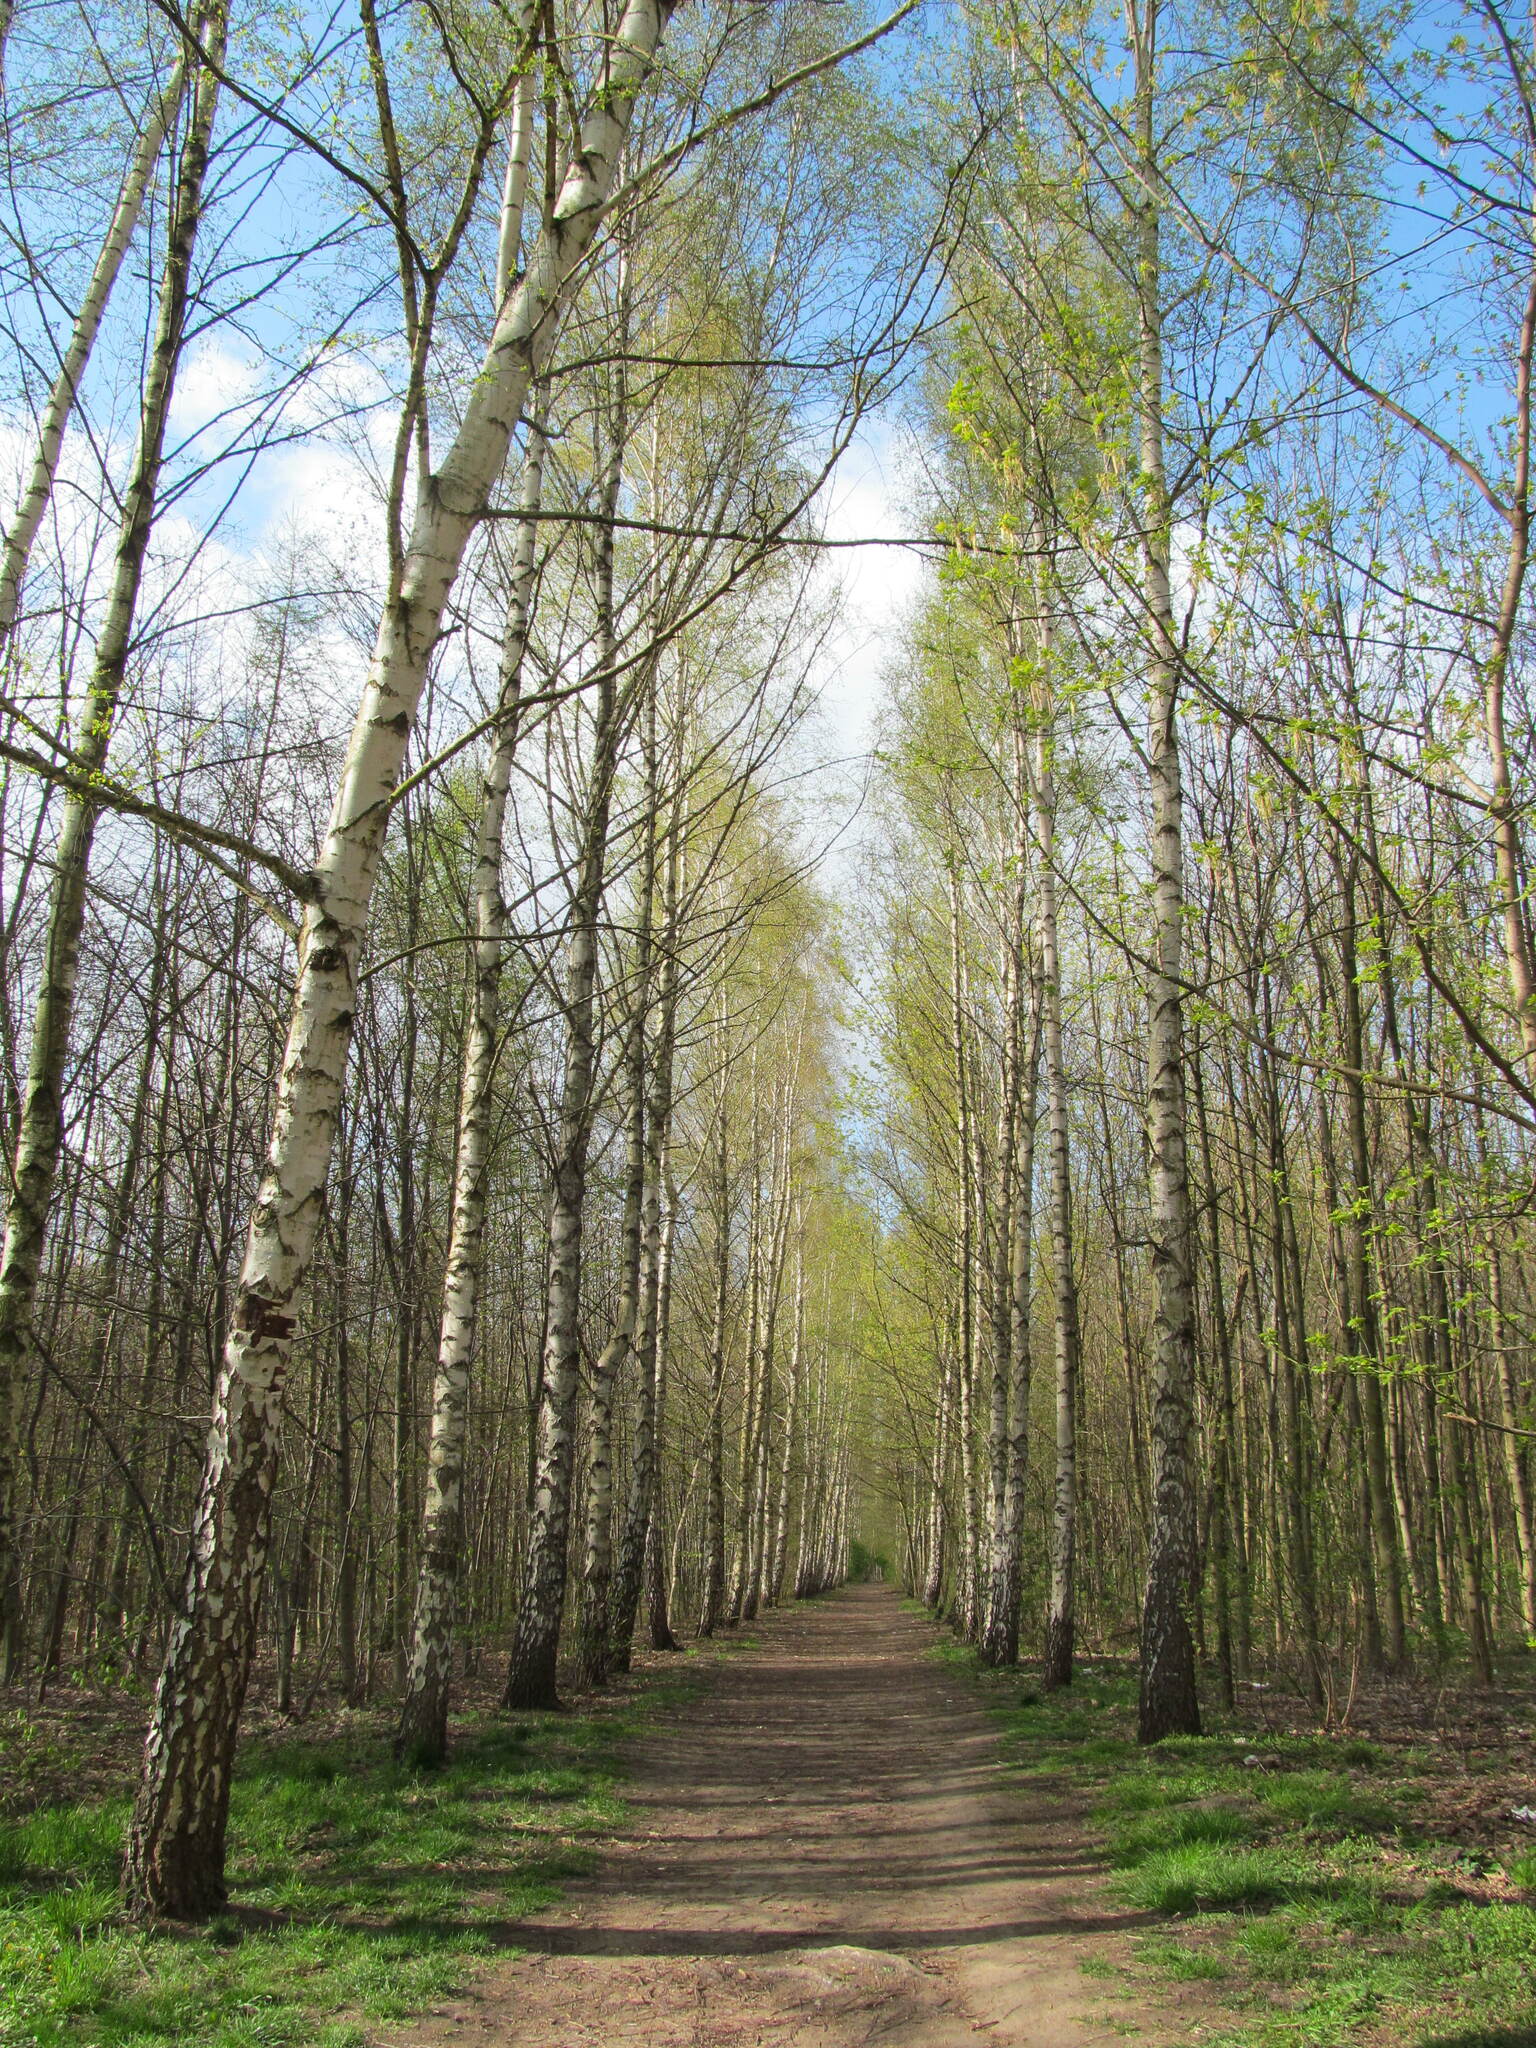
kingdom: Plantae
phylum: Tracheophyta
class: Magnoliopsida
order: Fagales
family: Betulaceae
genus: Betula
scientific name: Betula pendula
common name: Silver birch
